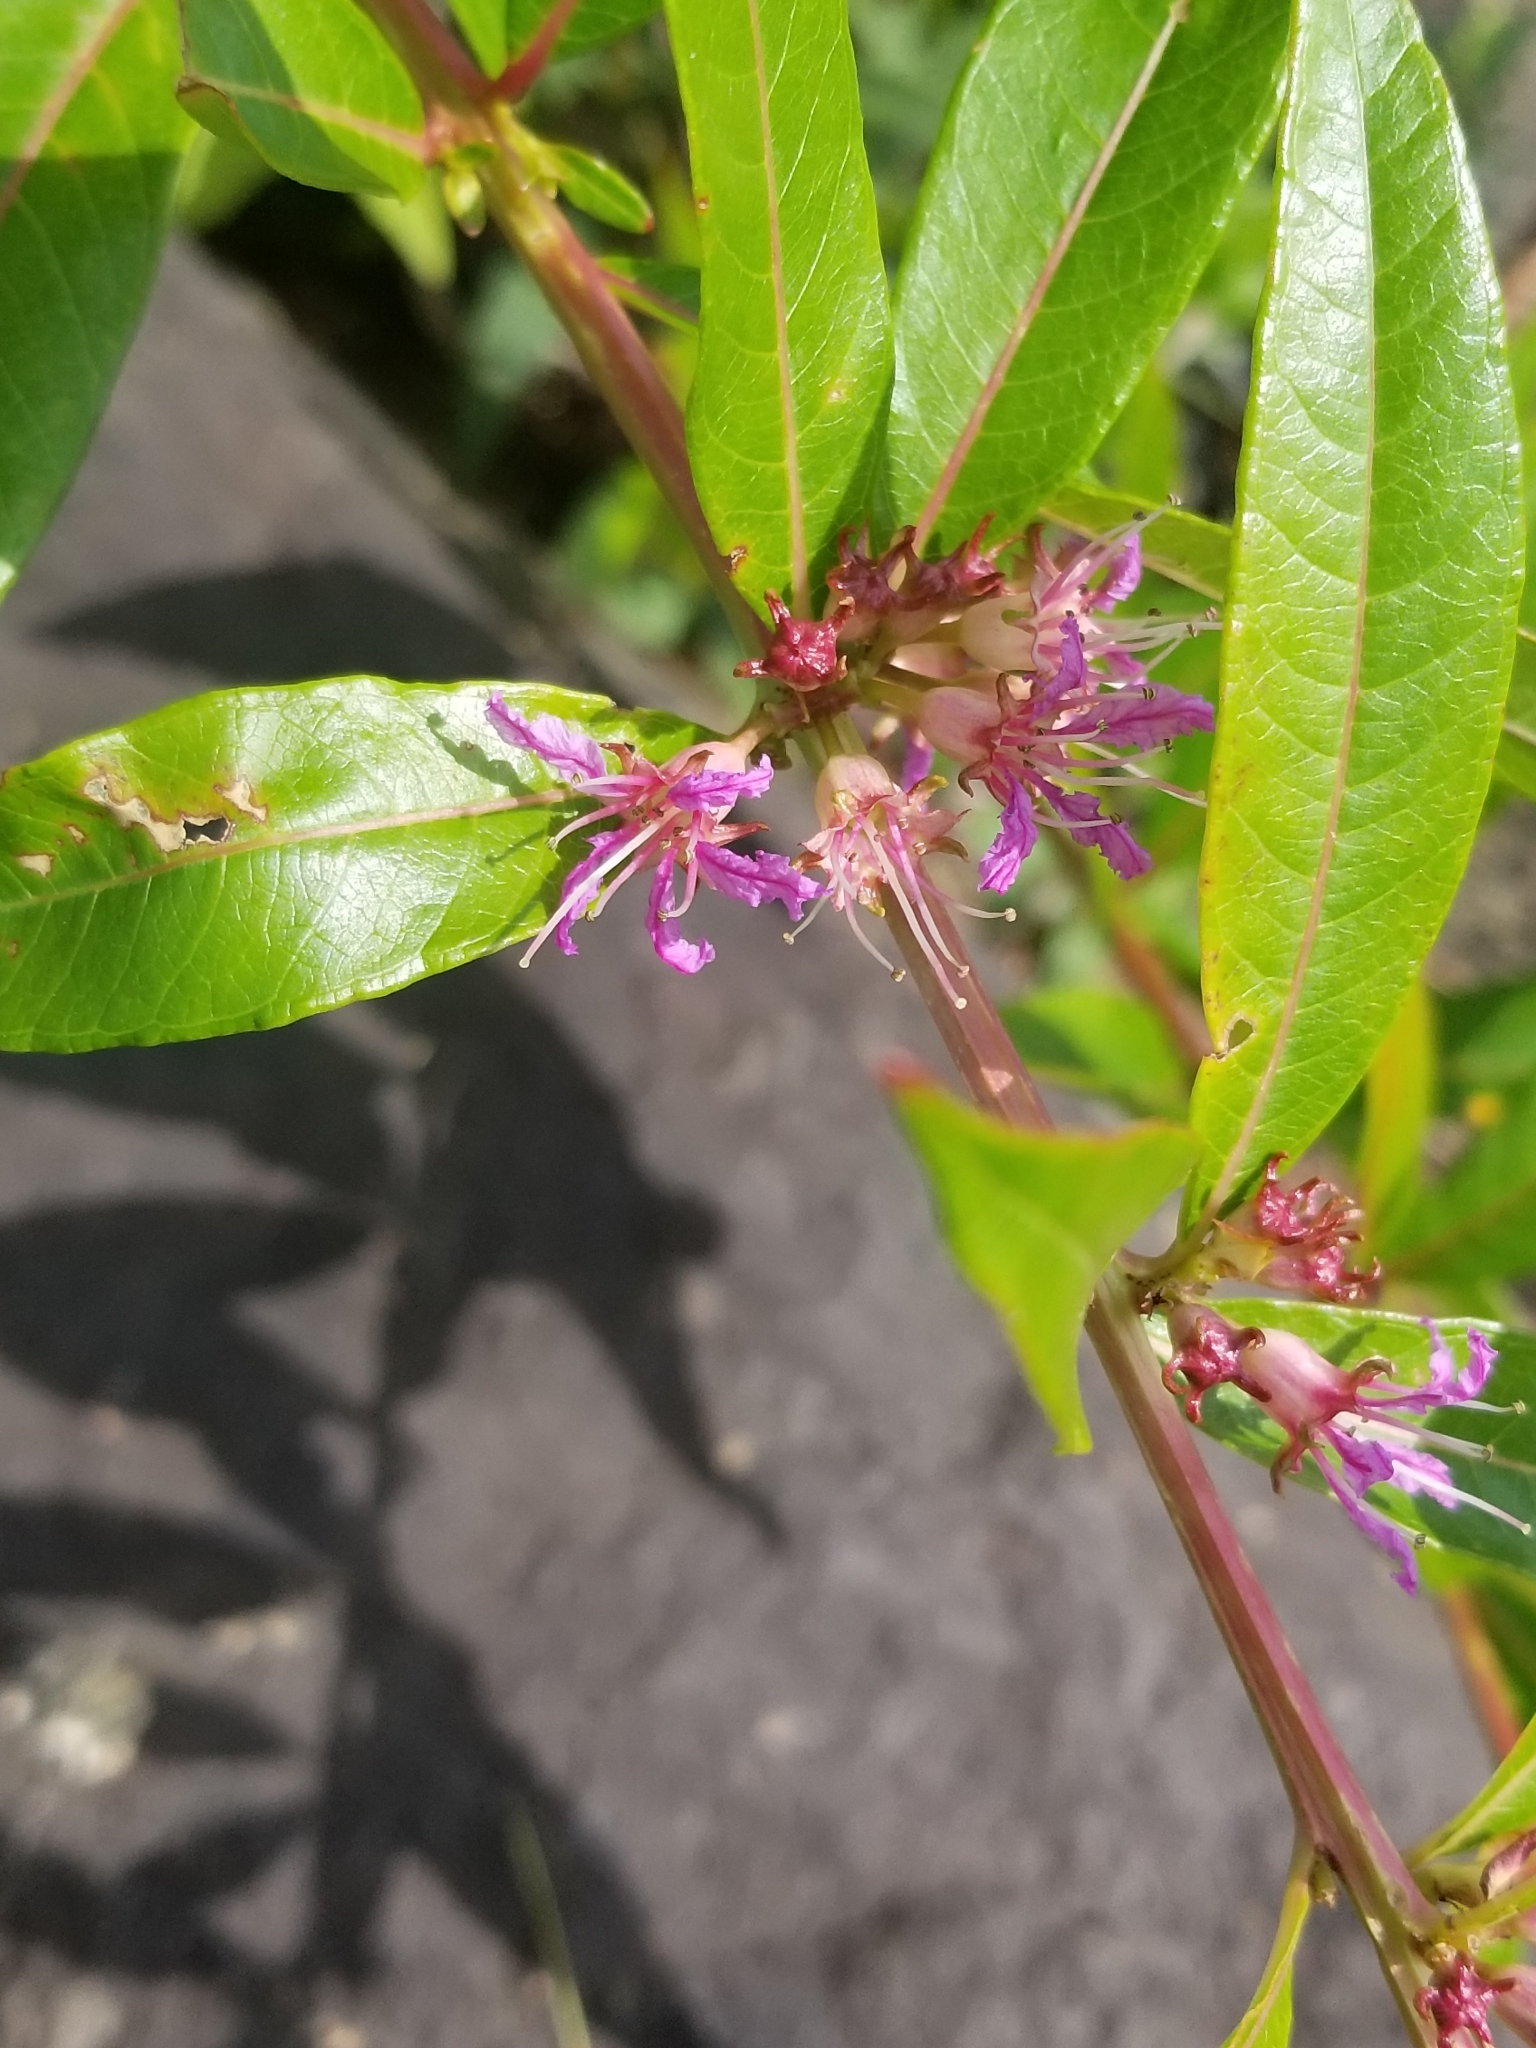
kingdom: Plantae
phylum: Tracheophyta
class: Magnoliopsida
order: Myrtales
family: Lythraceae
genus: Decodon
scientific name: Decodon verticillatus
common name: Hairy swamp loosestrife
